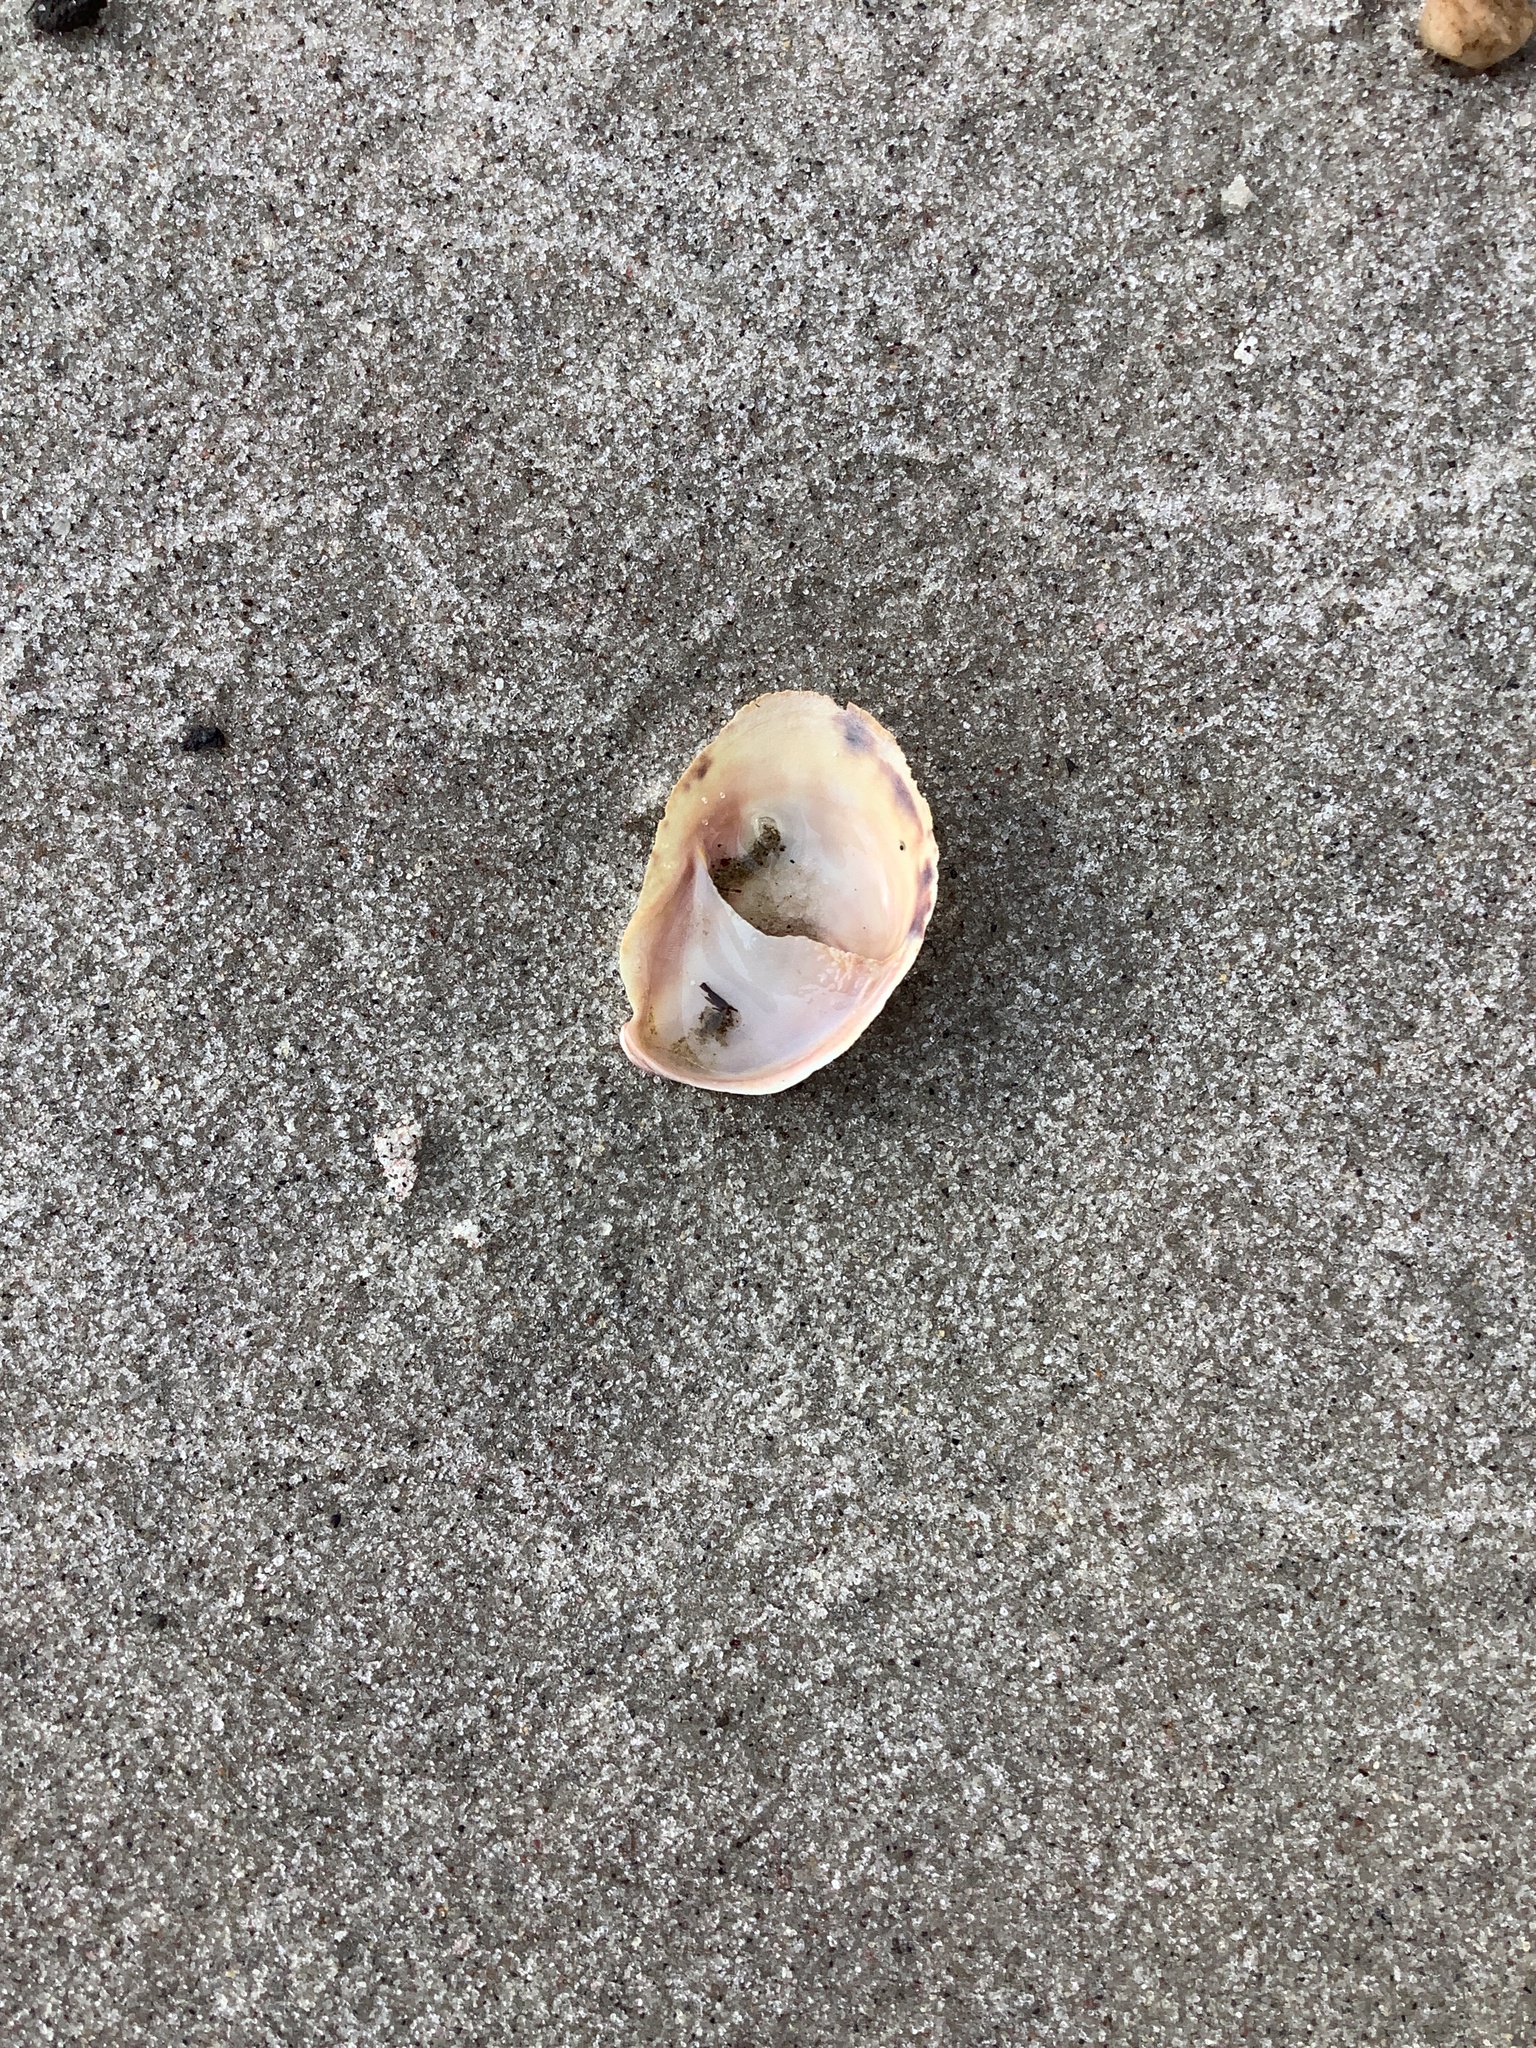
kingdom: Animalia
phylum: Mollusca
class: Gastropoda
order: Littorinimorpha
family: Calyptraeidae
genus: Crepidula
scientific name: Crepidula fornicata
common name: Slipper limpet
